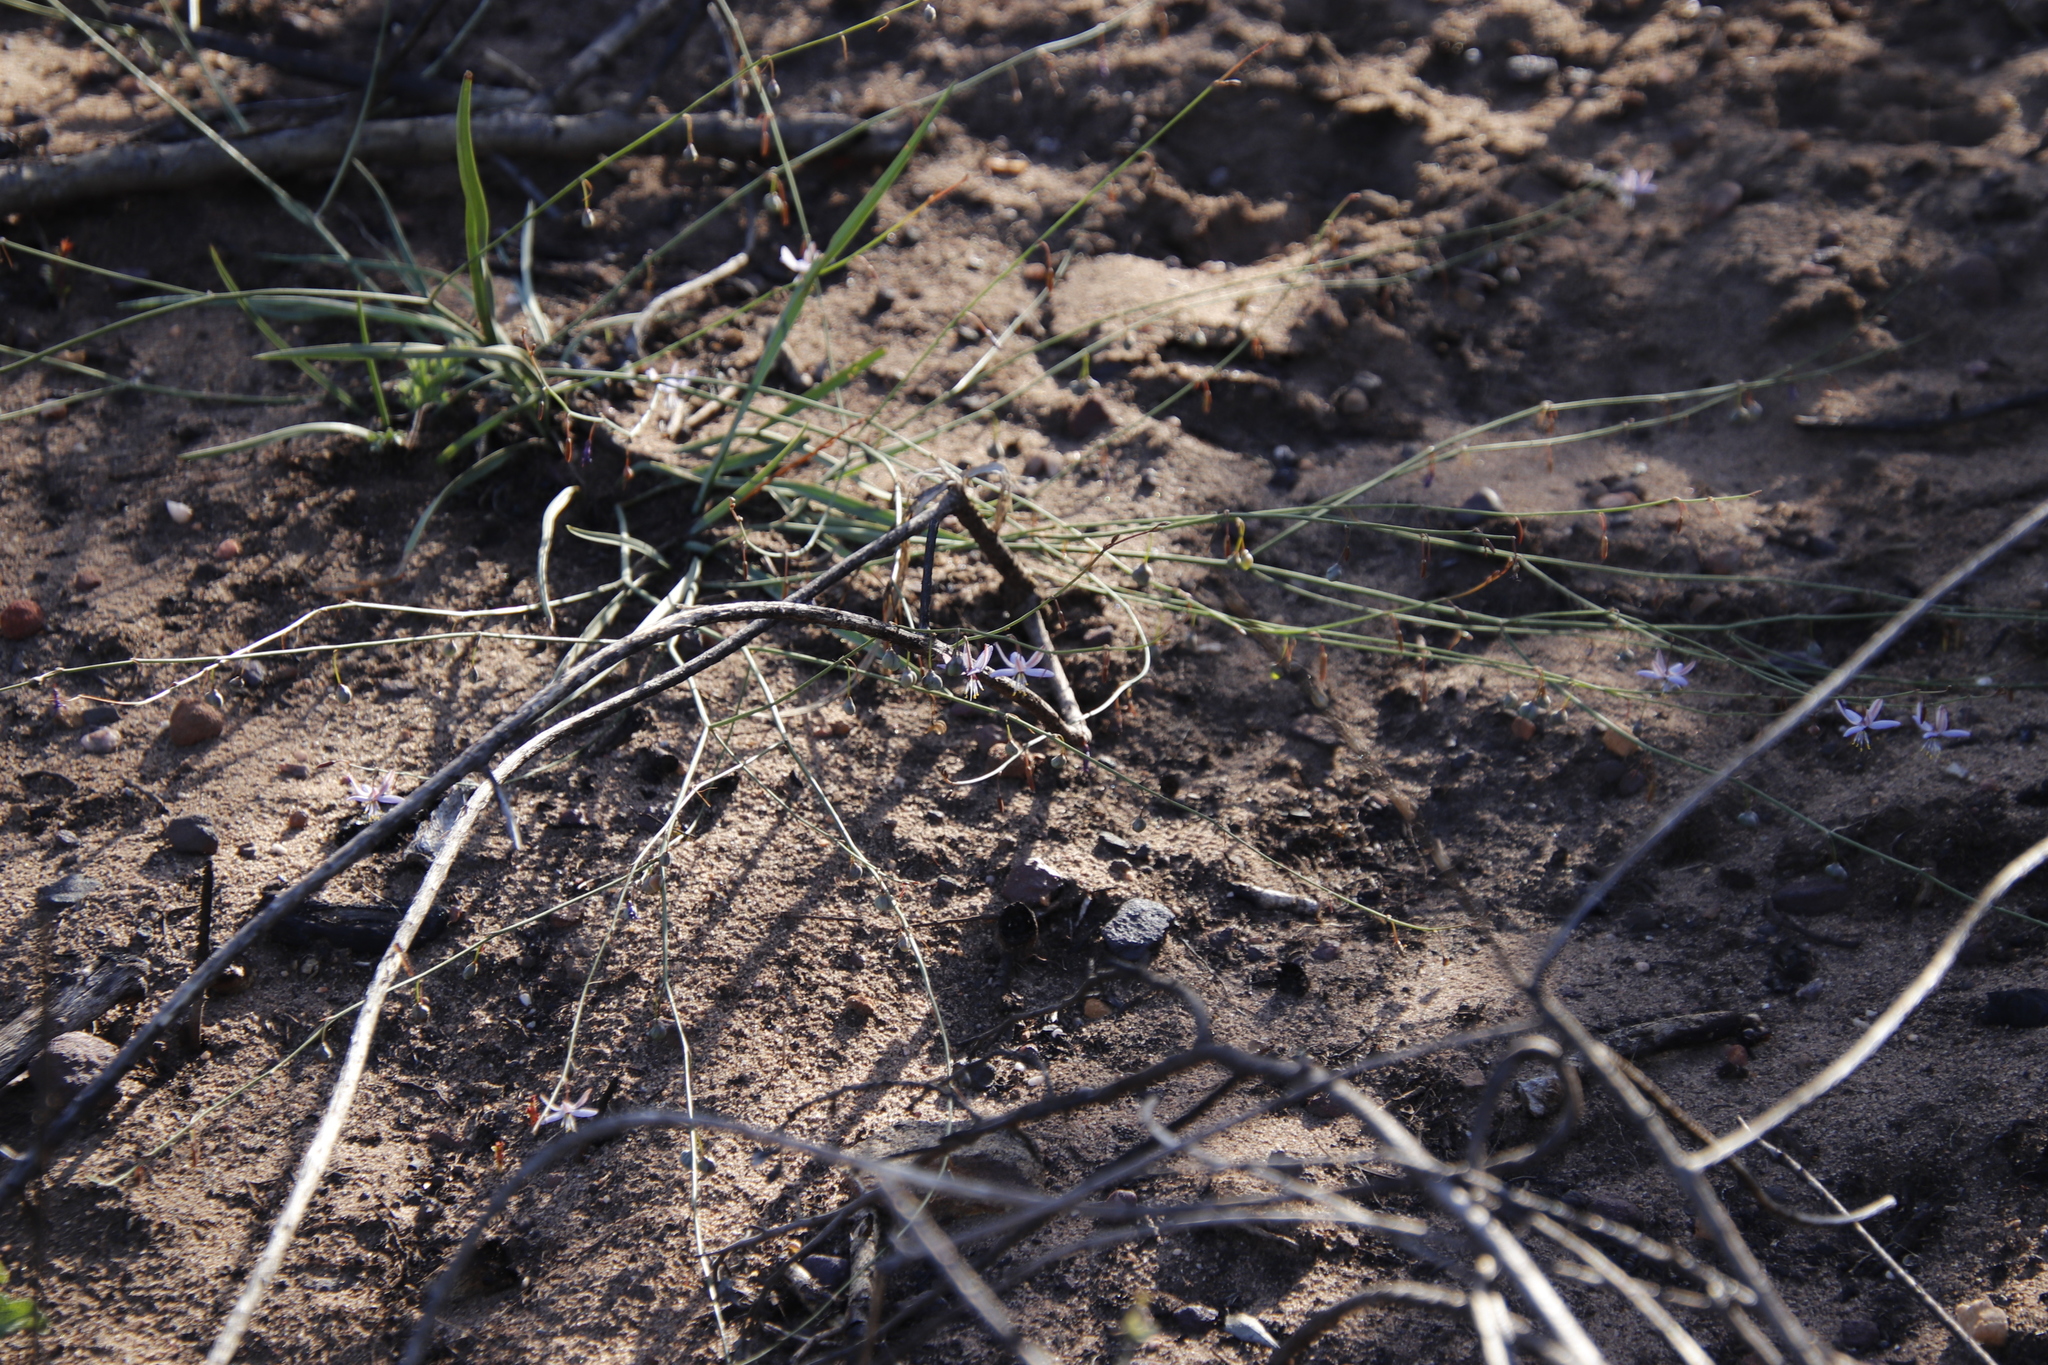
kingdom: Plantae
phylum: Tracheophyta
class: Liliopsida
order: Asparagales
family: Asphodelaceae
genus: Caesia
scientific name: Caesia contorta
